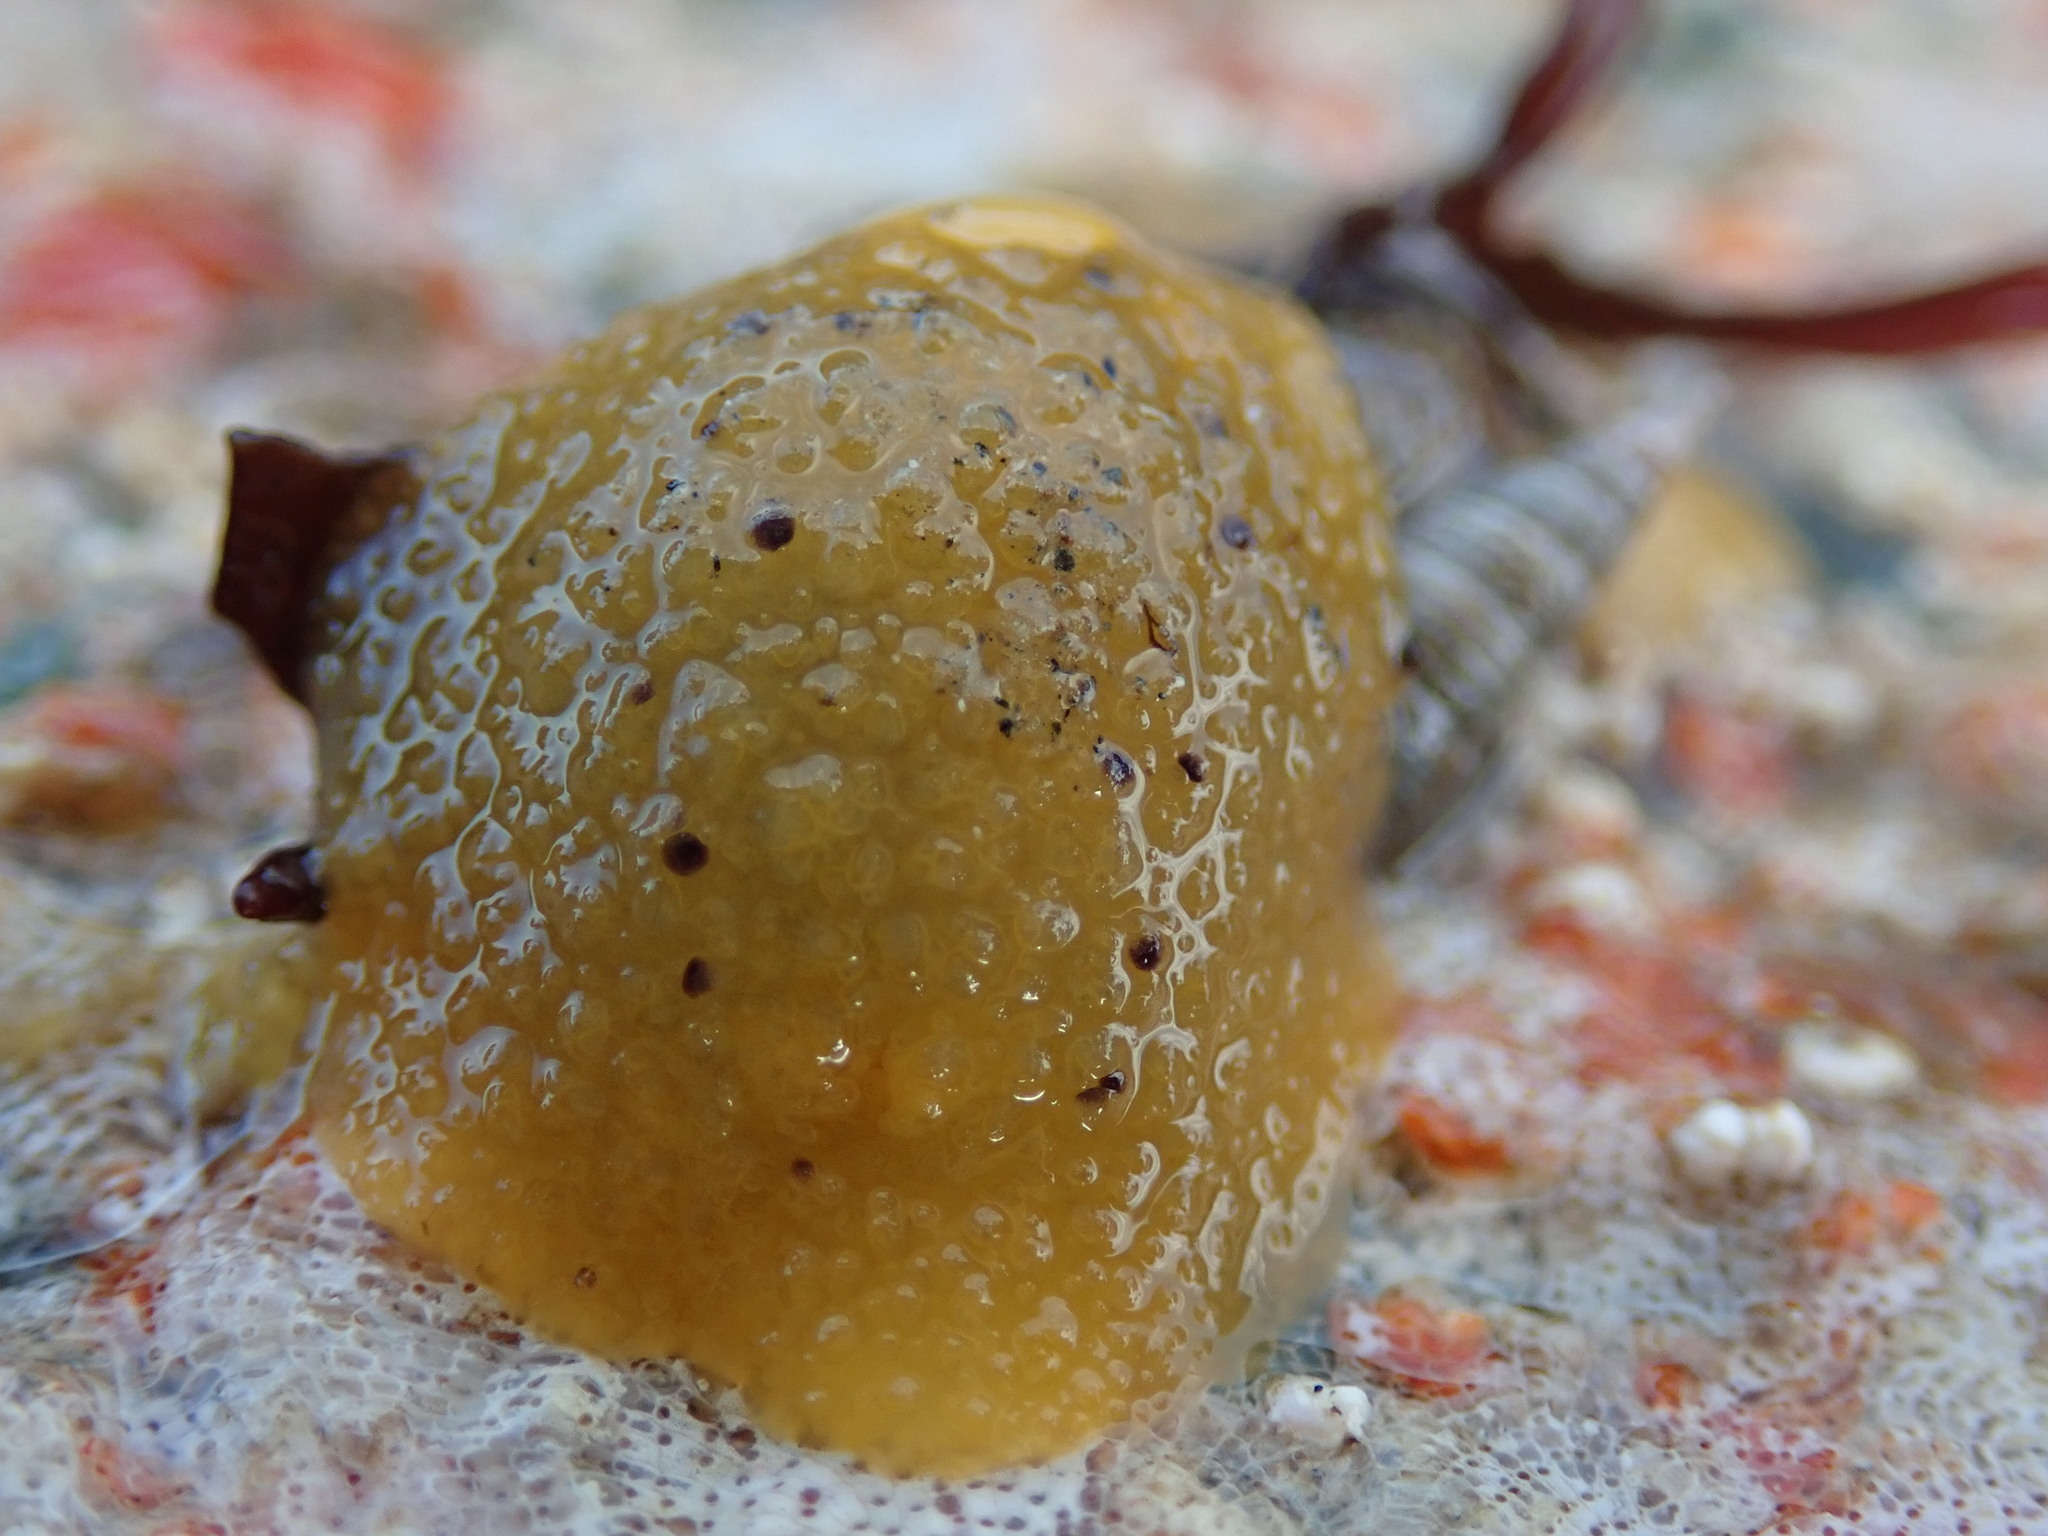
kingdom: Animalia
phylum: Mollusca
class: Gastropoda
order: Nudibranchia
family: Dorididae
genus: Doris
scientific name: Doris montereyensis
